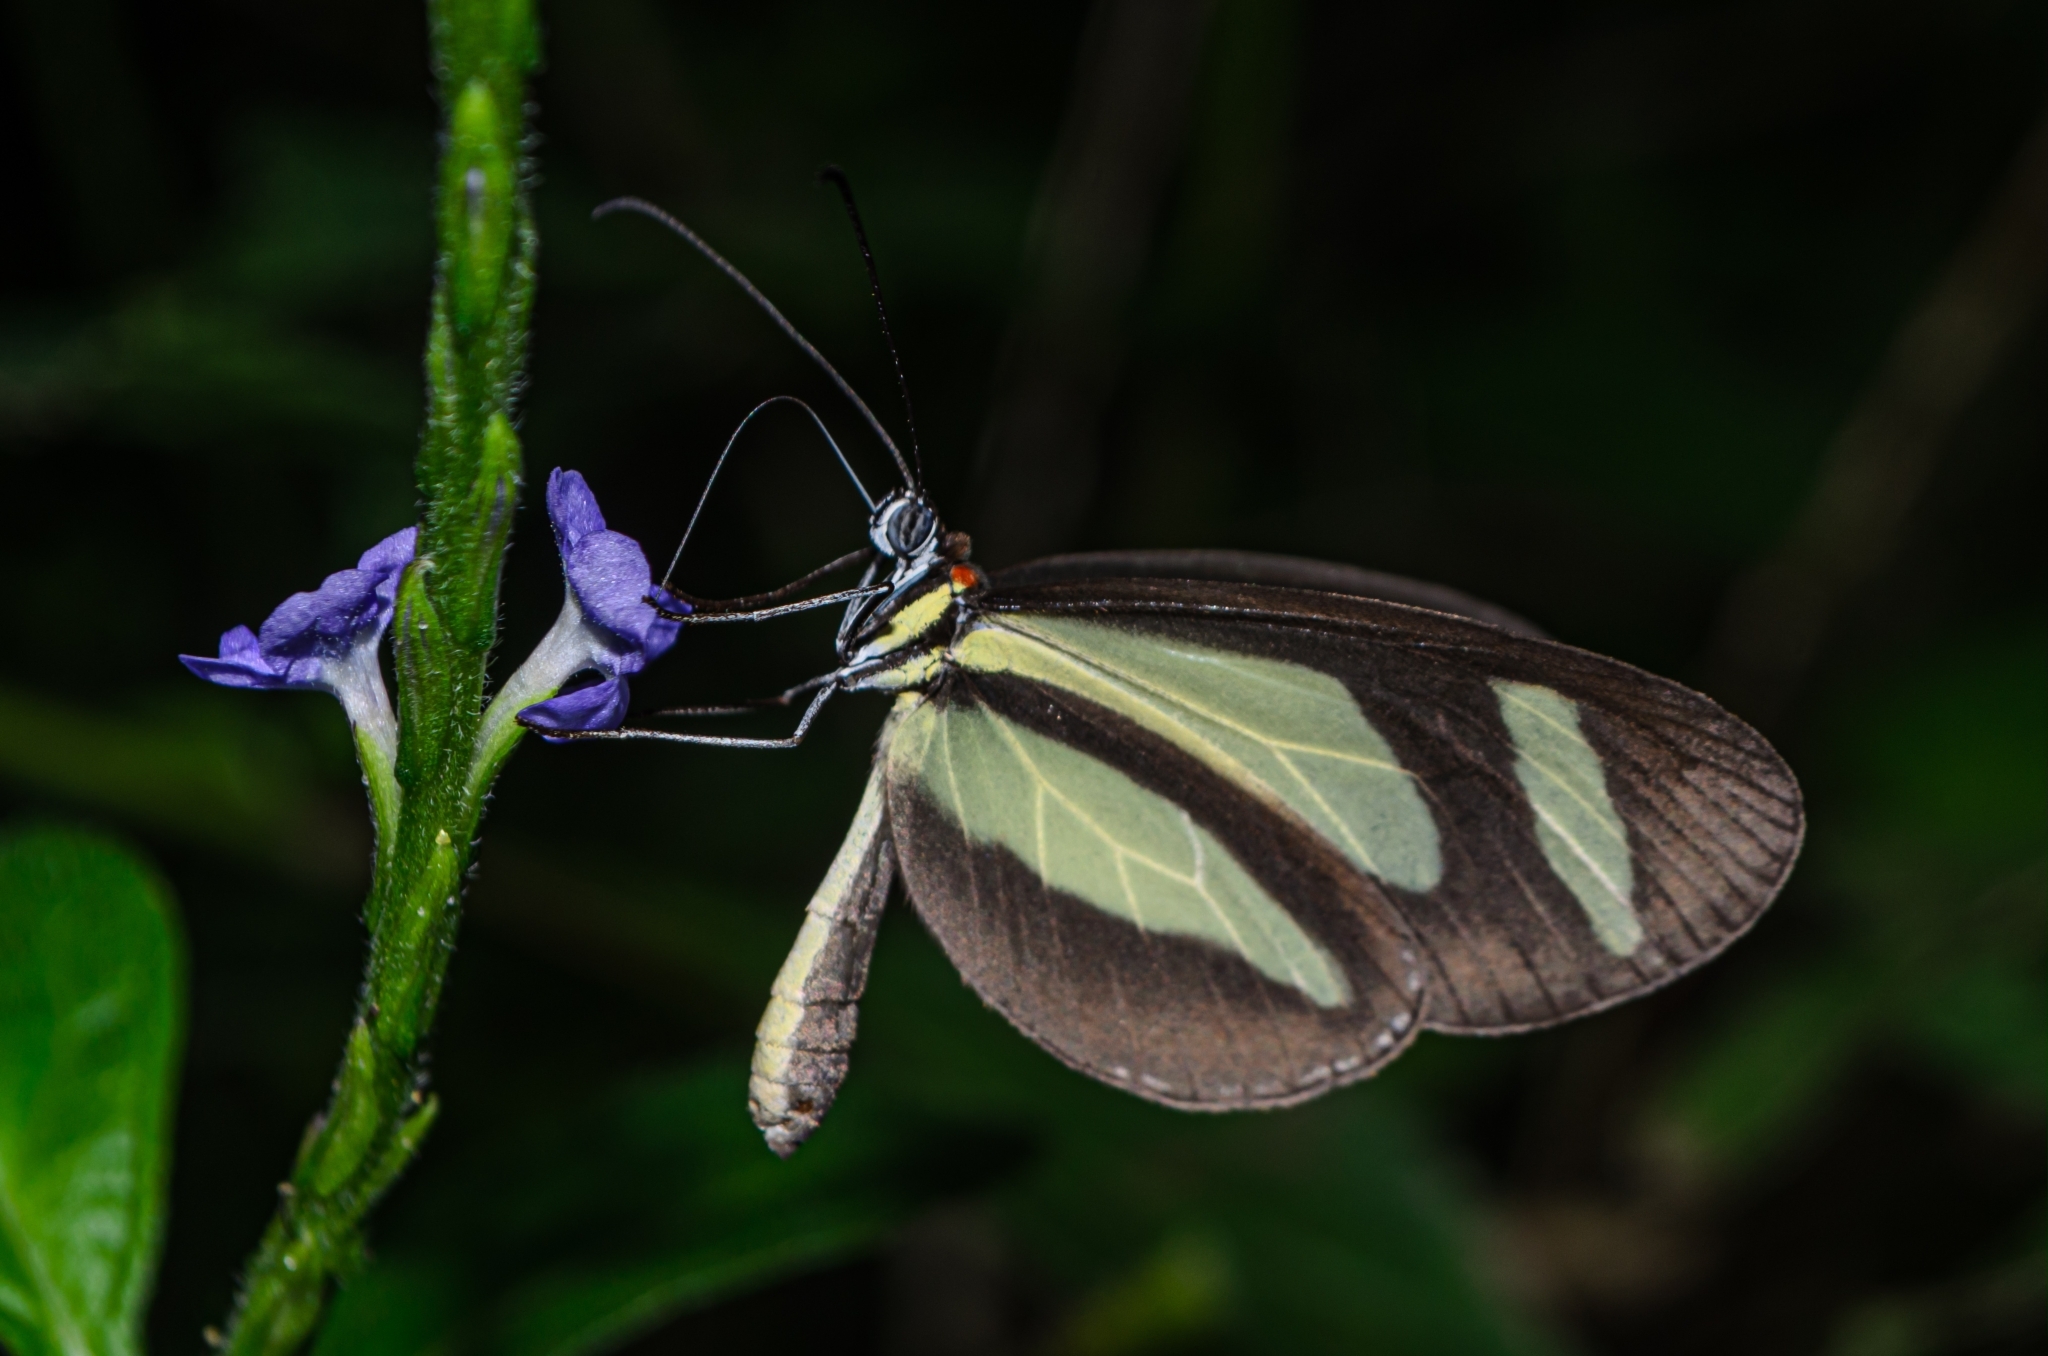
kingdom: Animalia
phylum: Arthropoda
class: Insecta
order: Lepidoptera
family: Nymphalidae
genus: Aeria
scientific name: Aeria olena
